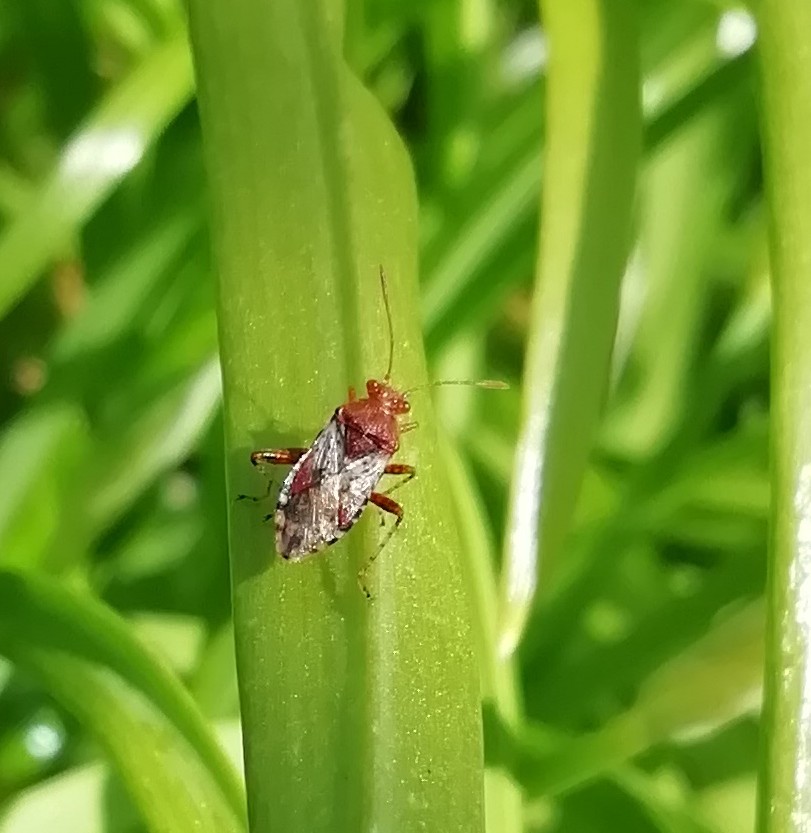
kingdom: Animalia
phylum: Arthropoda
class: Insecta
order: Hemiptera
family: Rhopalidae
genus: Rhopalus
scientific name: Rhopalus subrufus
